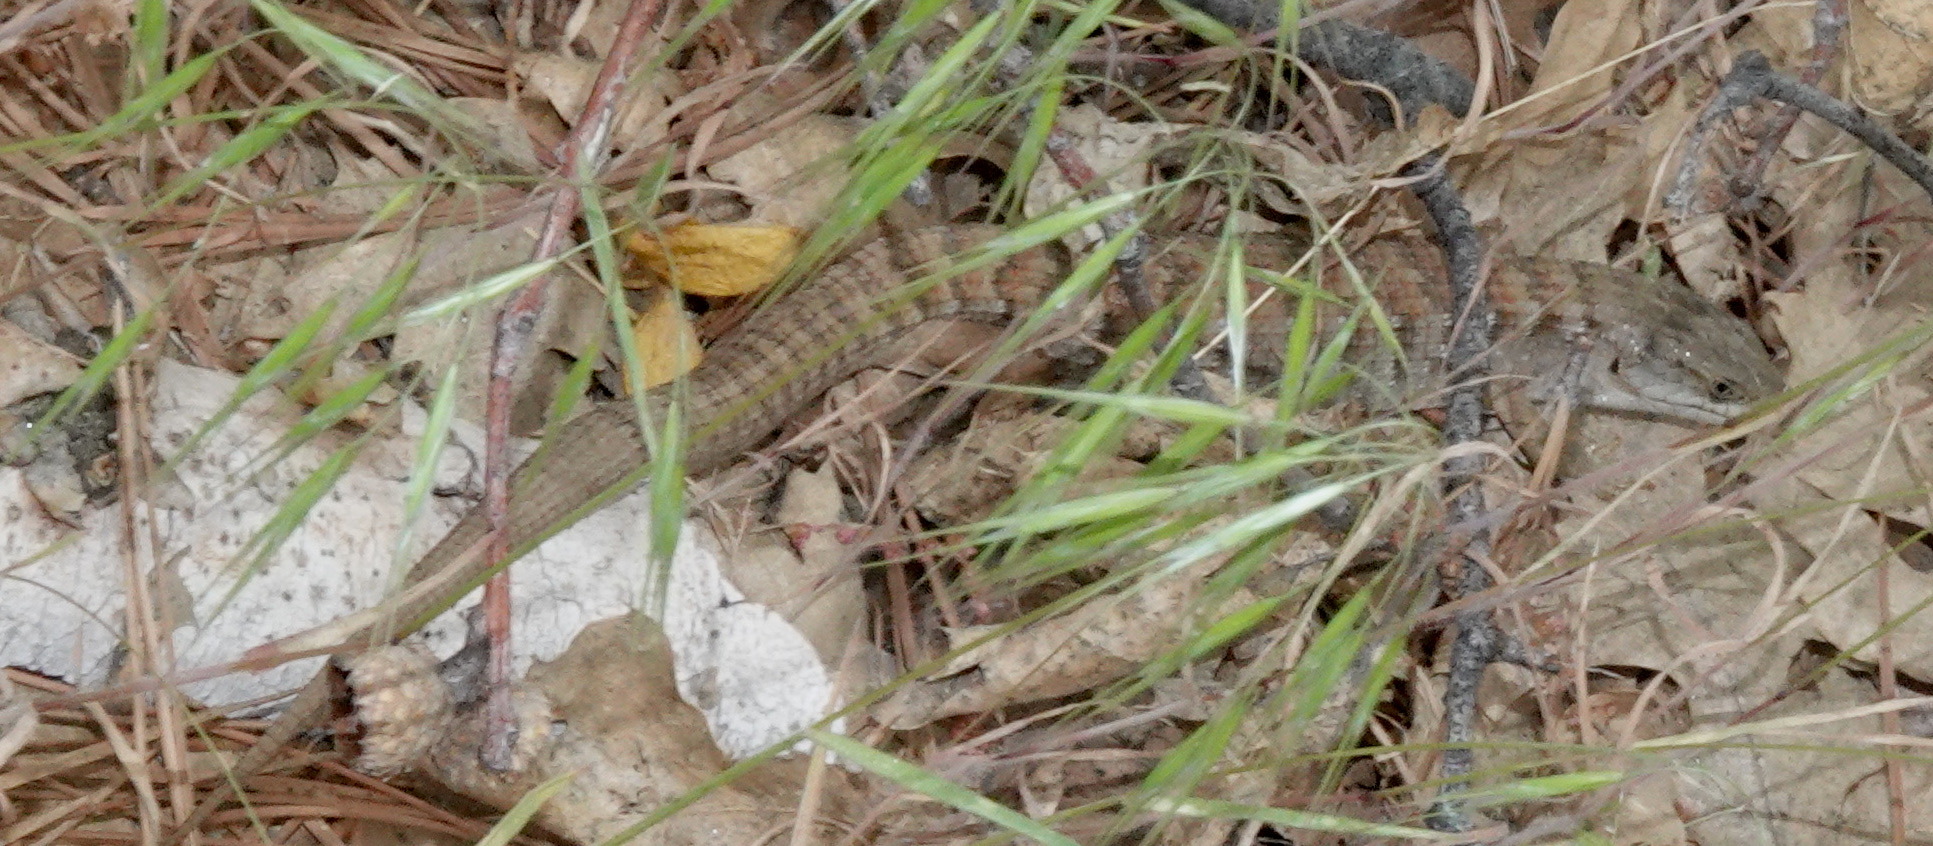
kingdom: Animalia
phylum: Chordata
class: Squamata
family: Anguidae
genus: Elgaria
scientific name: Elgaria multicarinata
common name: Southern alligator lizard
